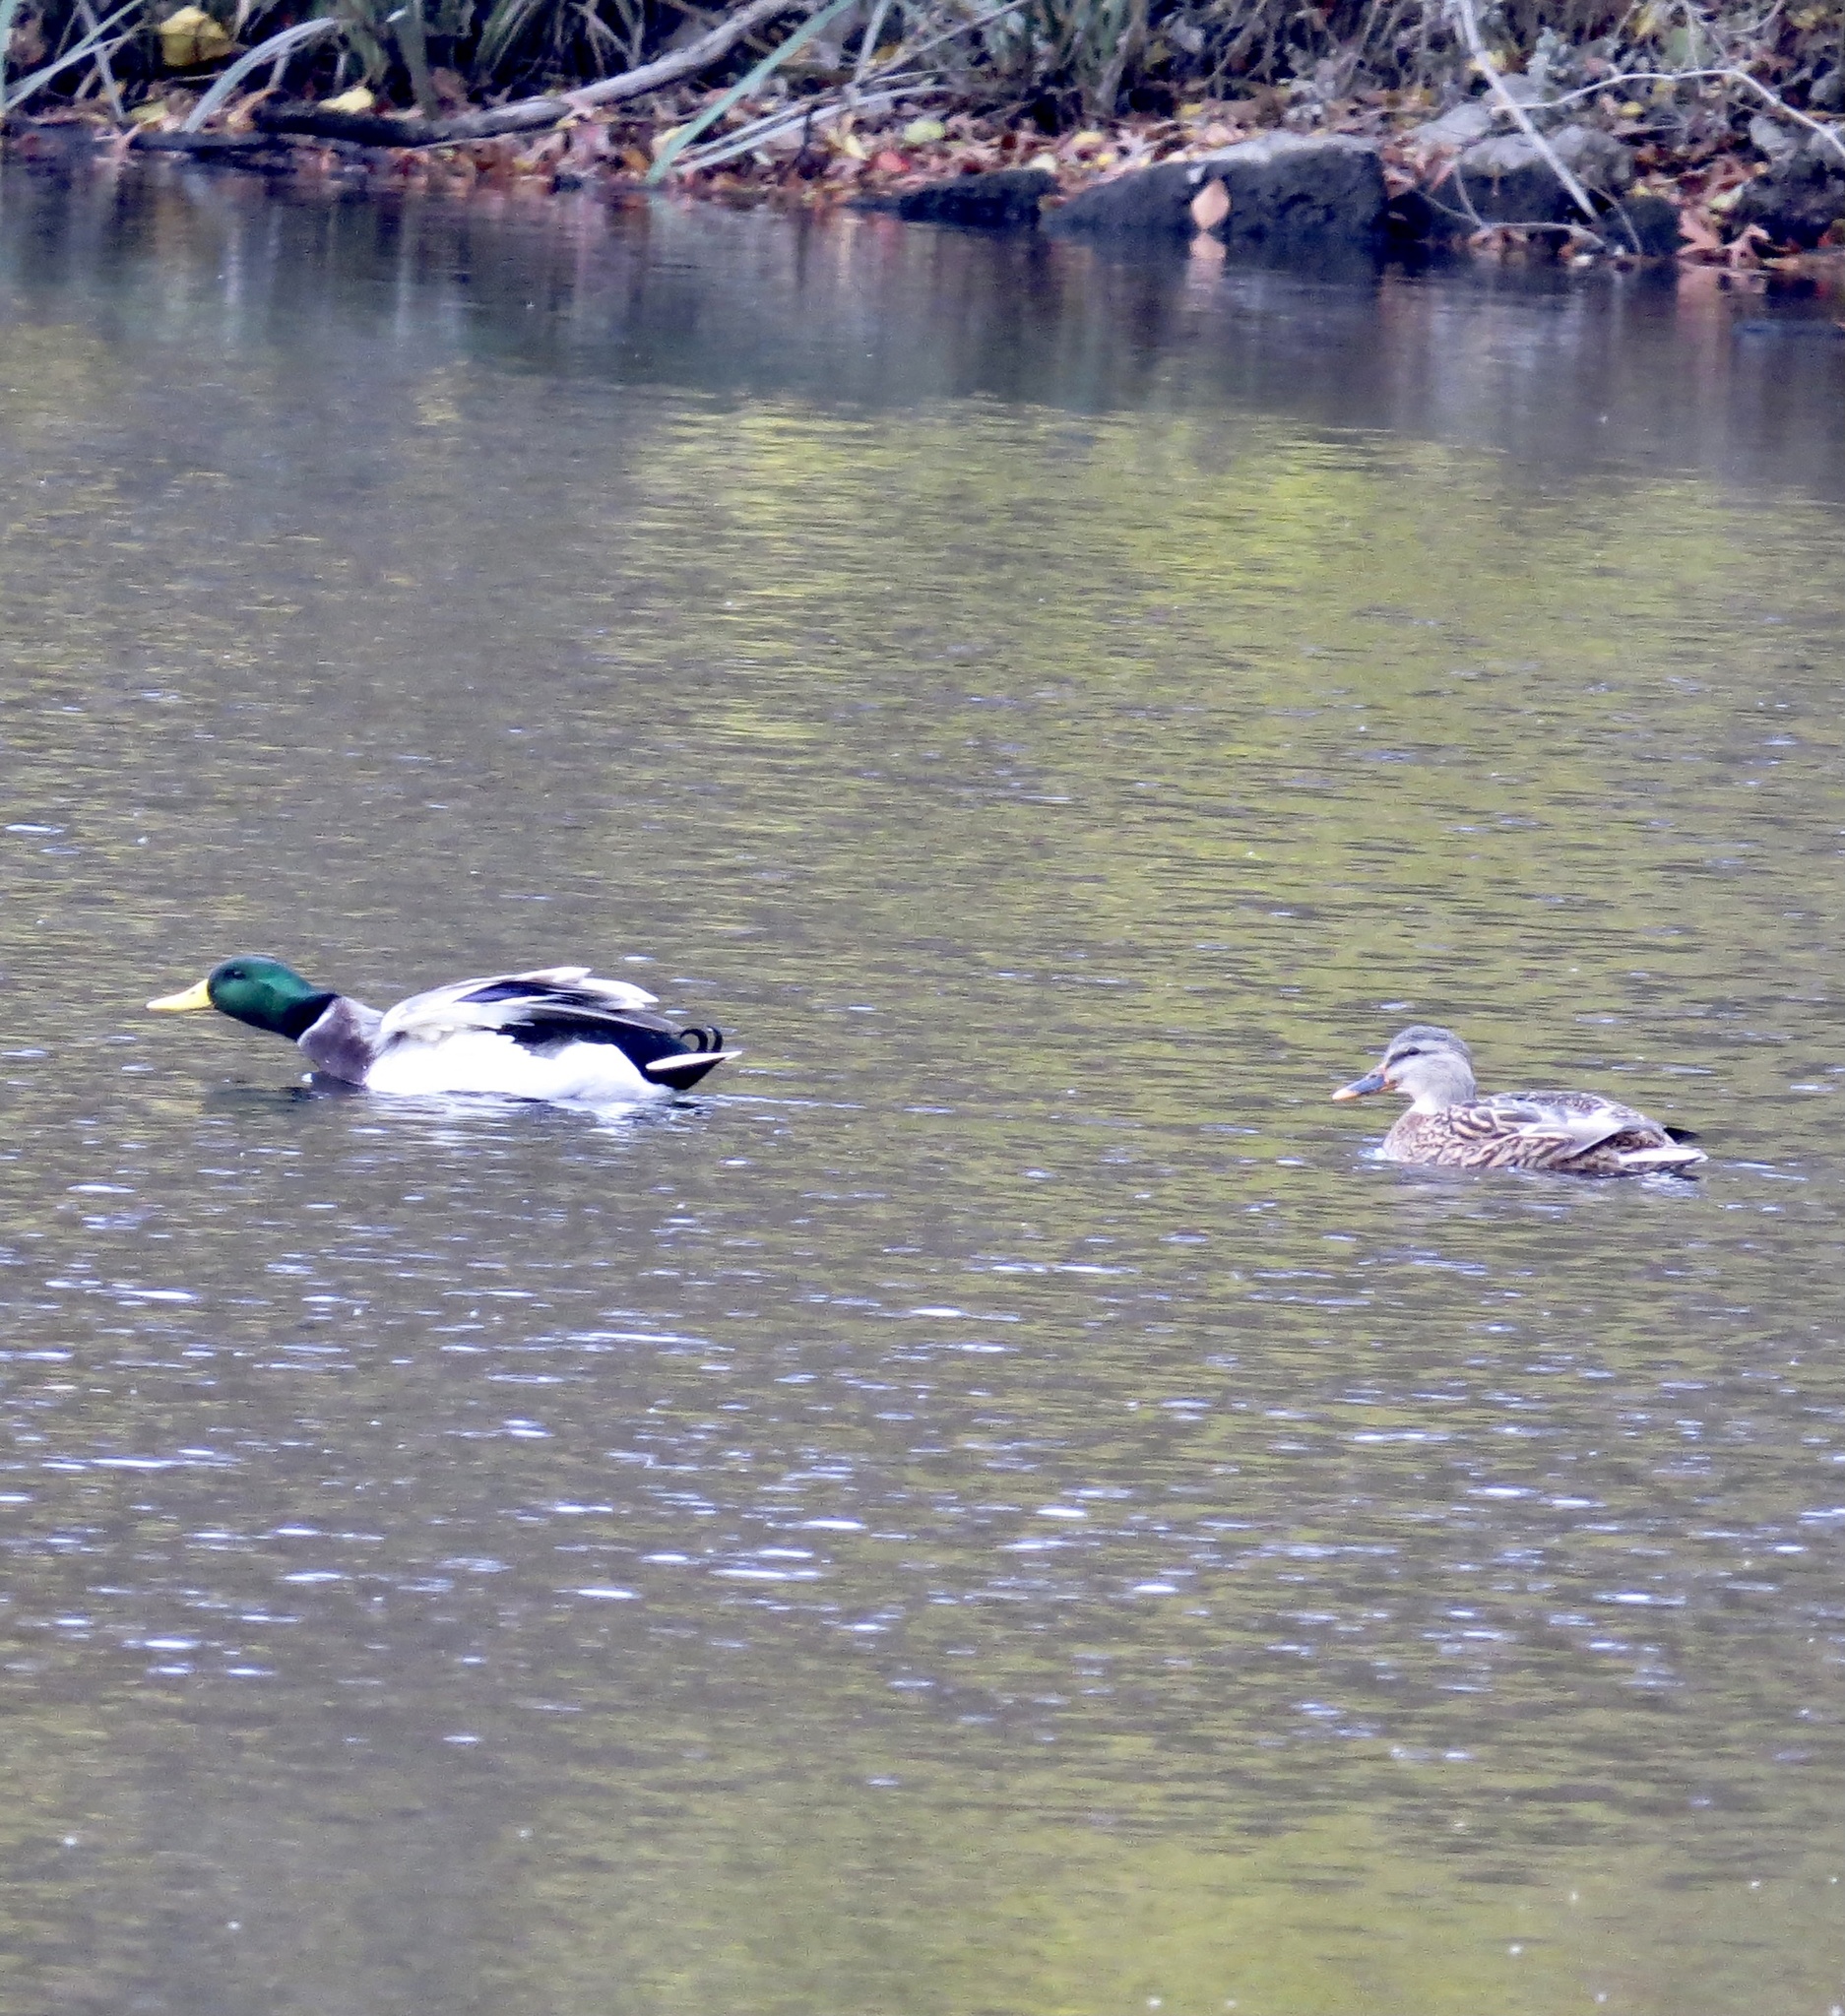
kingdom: Animalia
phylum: Chordata
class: Aves
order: Anseriformes
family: Anatidae
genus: Anas
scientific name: Anas platyrhynchos
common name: Mallard
